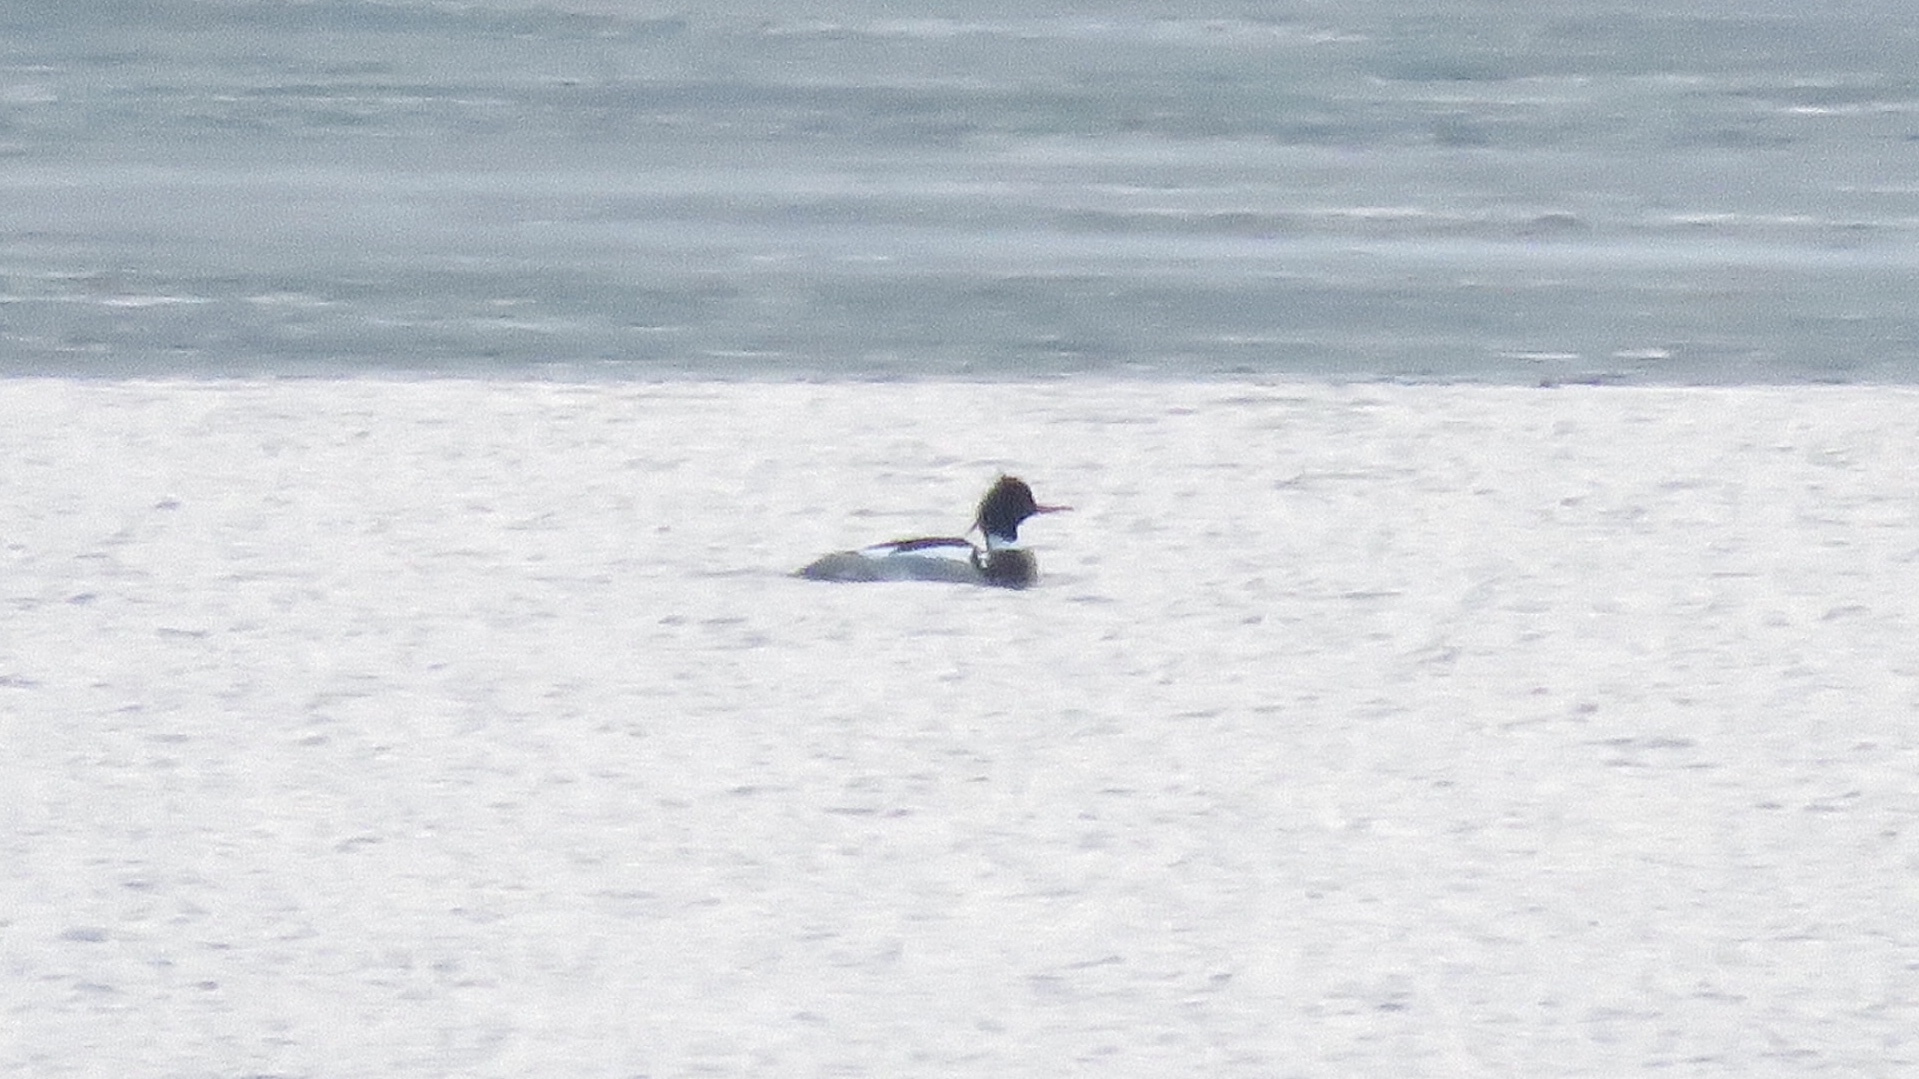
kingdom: Animalia
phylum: Chordata
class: Aves
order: Anseriformes
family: Anatidae
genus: Mergus
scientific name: Mergus serrator
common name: Red-breasted merganser
